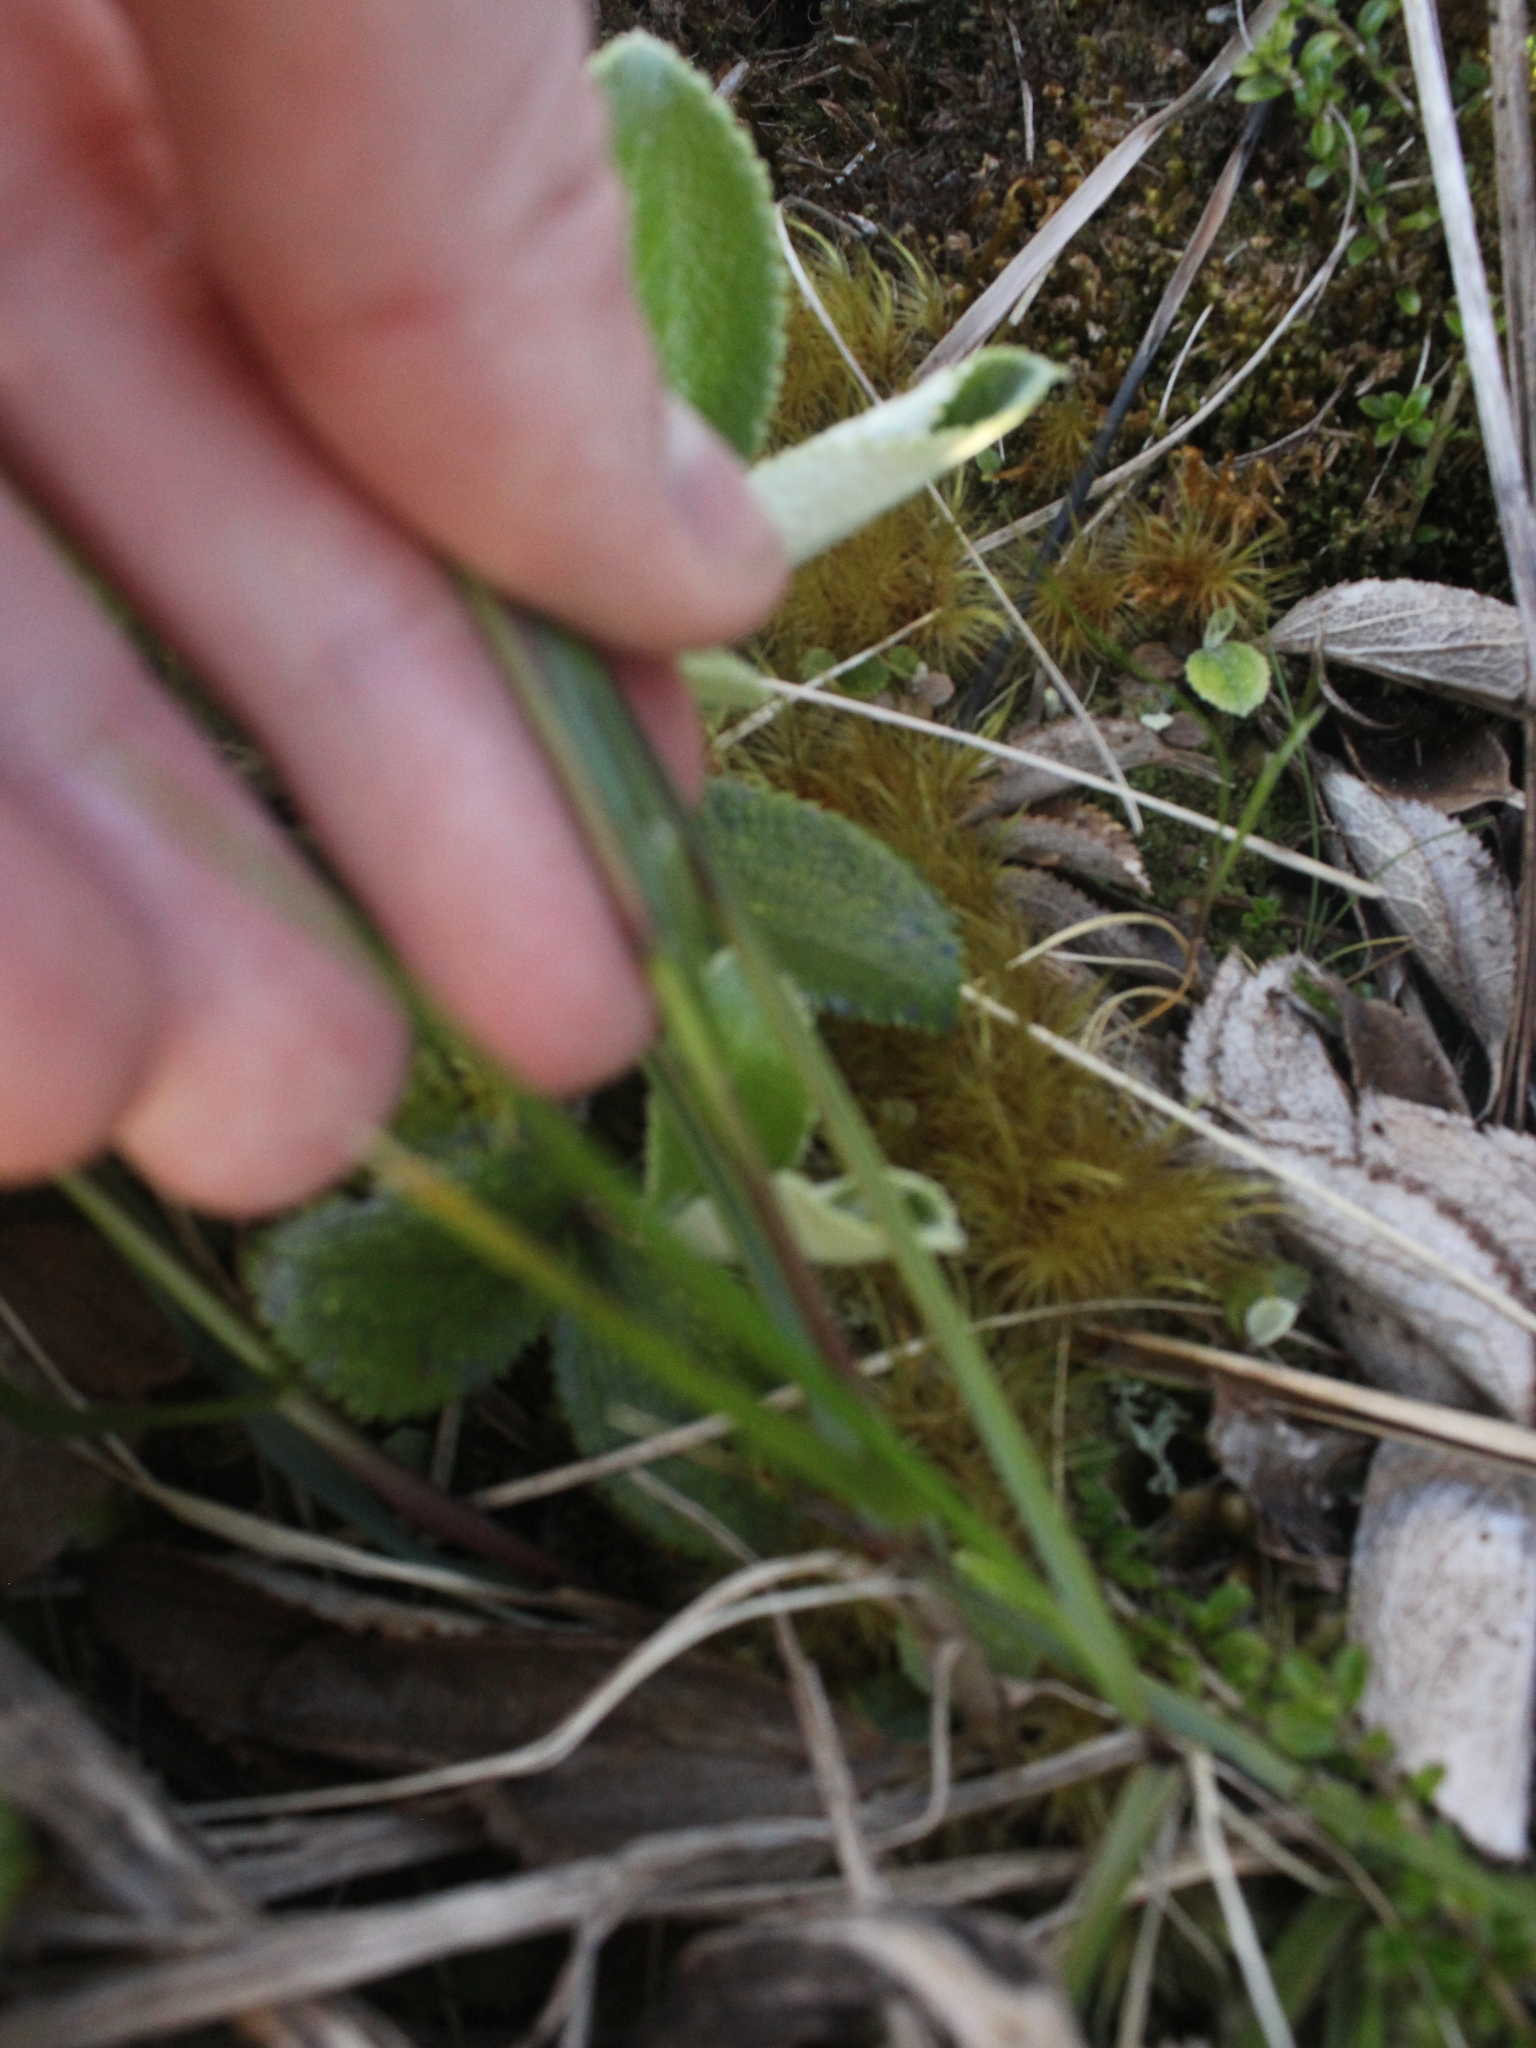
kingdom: Plantae
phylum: Tracheophyta
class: Liliopsida
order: Poales
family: Poaceae
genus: Anthoxanthum
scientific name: Anthoxanthum redolens
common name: Sweet holy grass
